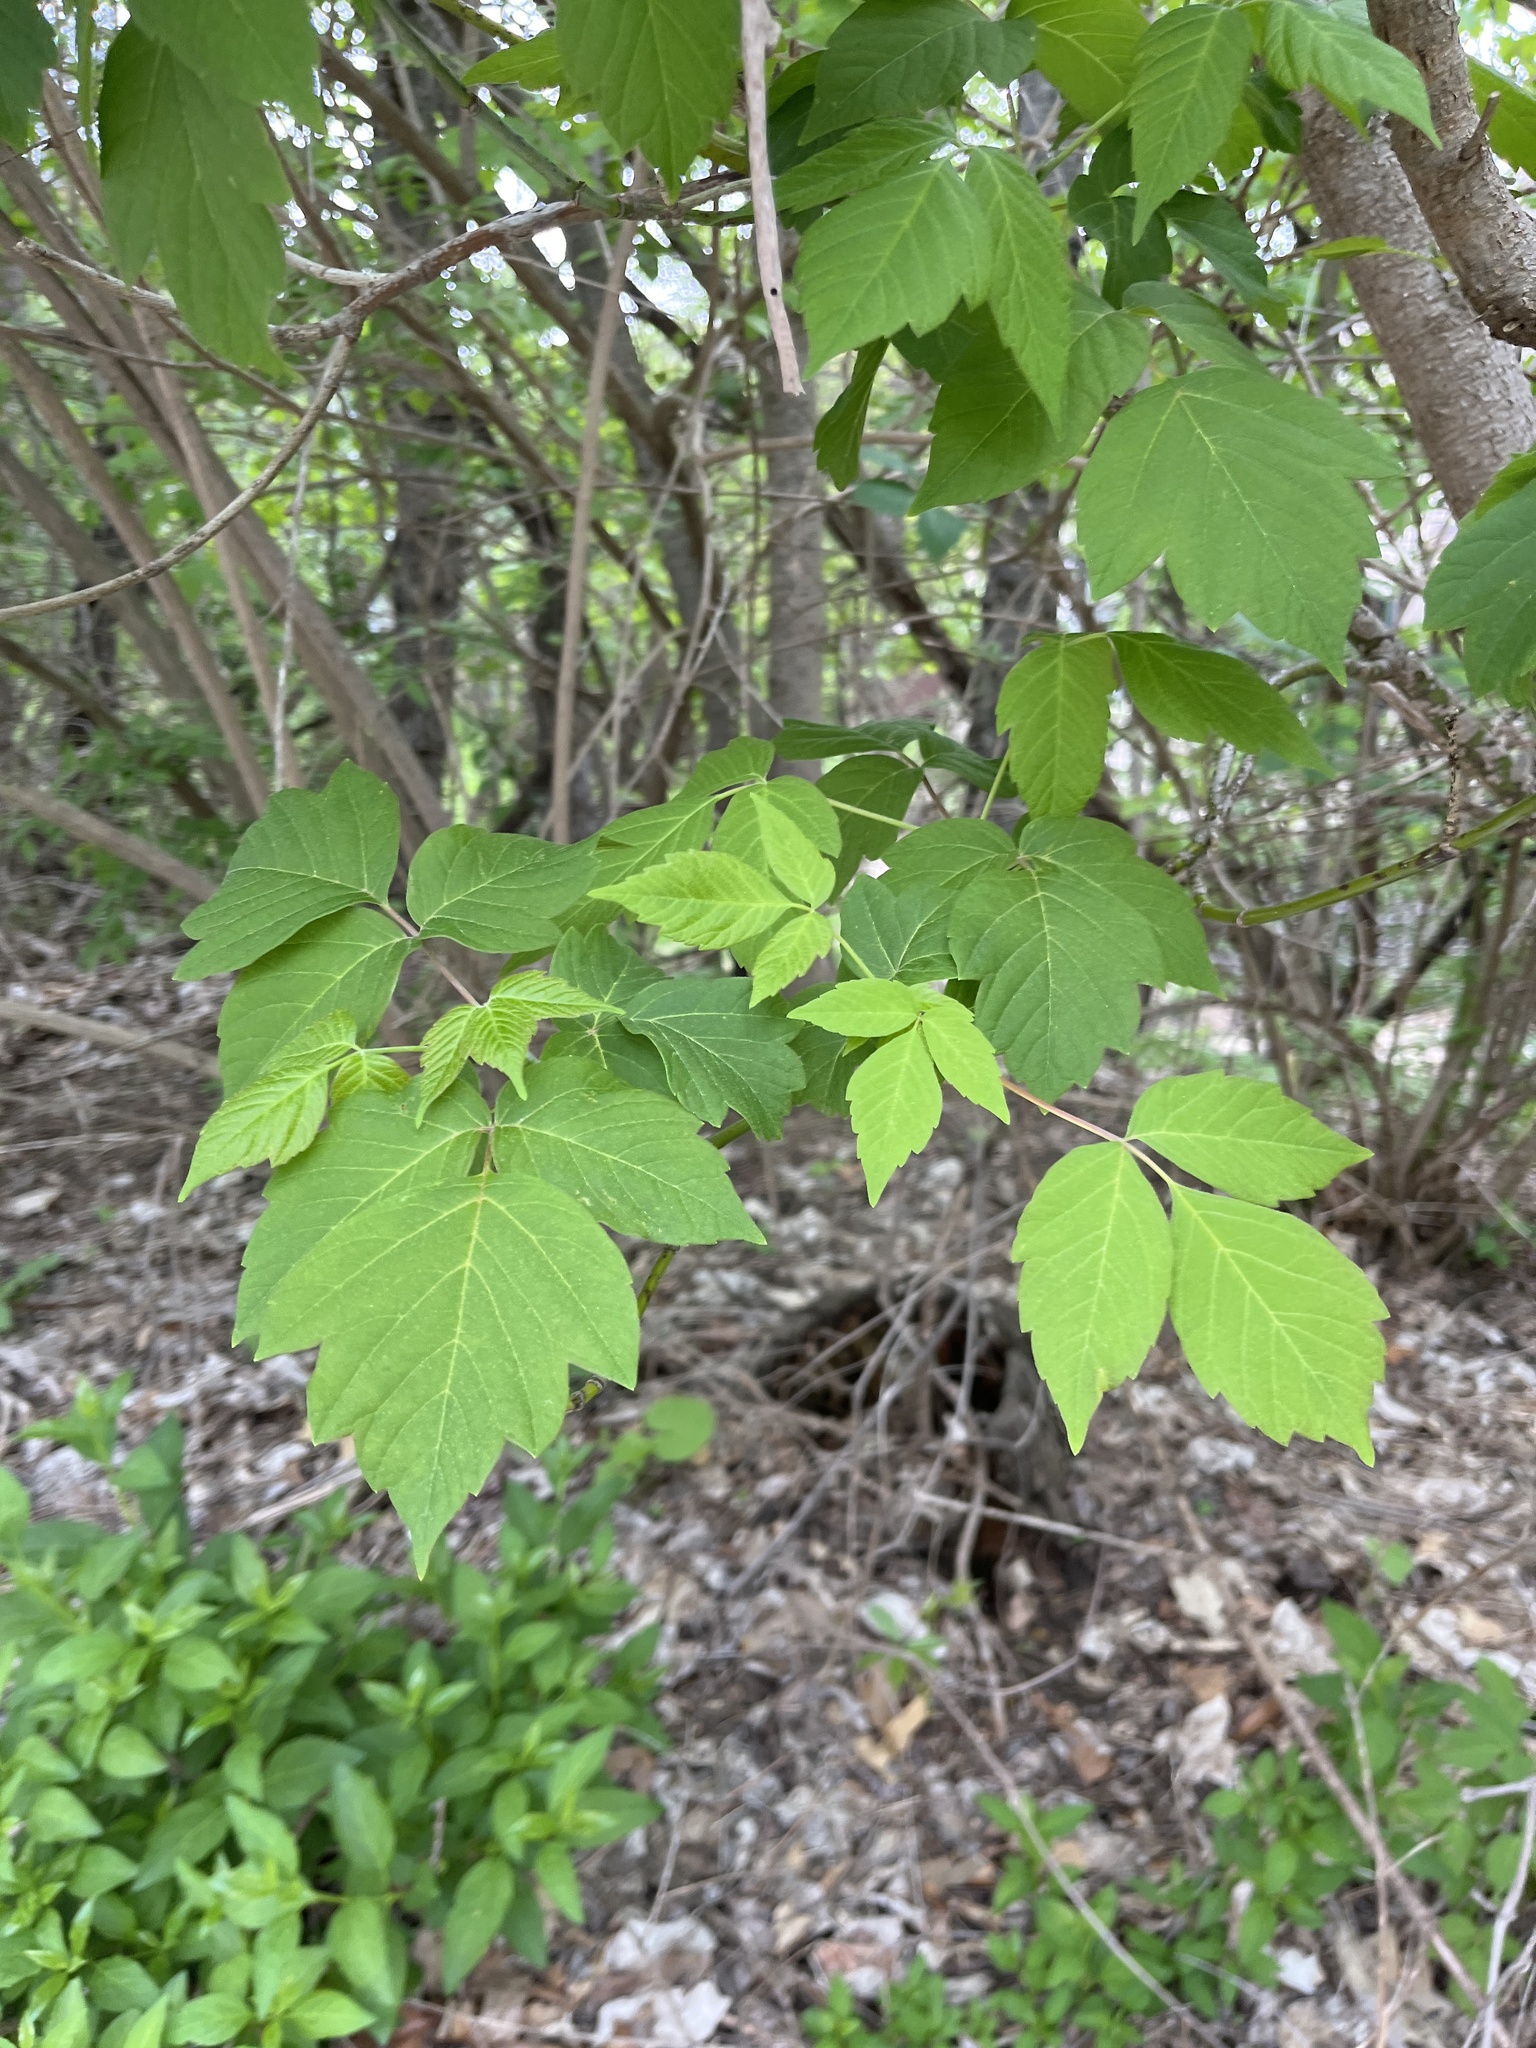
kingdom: Plantae
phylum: Tracheophyta
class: Magnoliopsida
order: Sapindales
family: Sapindaceae
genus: Acer
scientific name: Acer negundo
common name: Ashleaf maple
